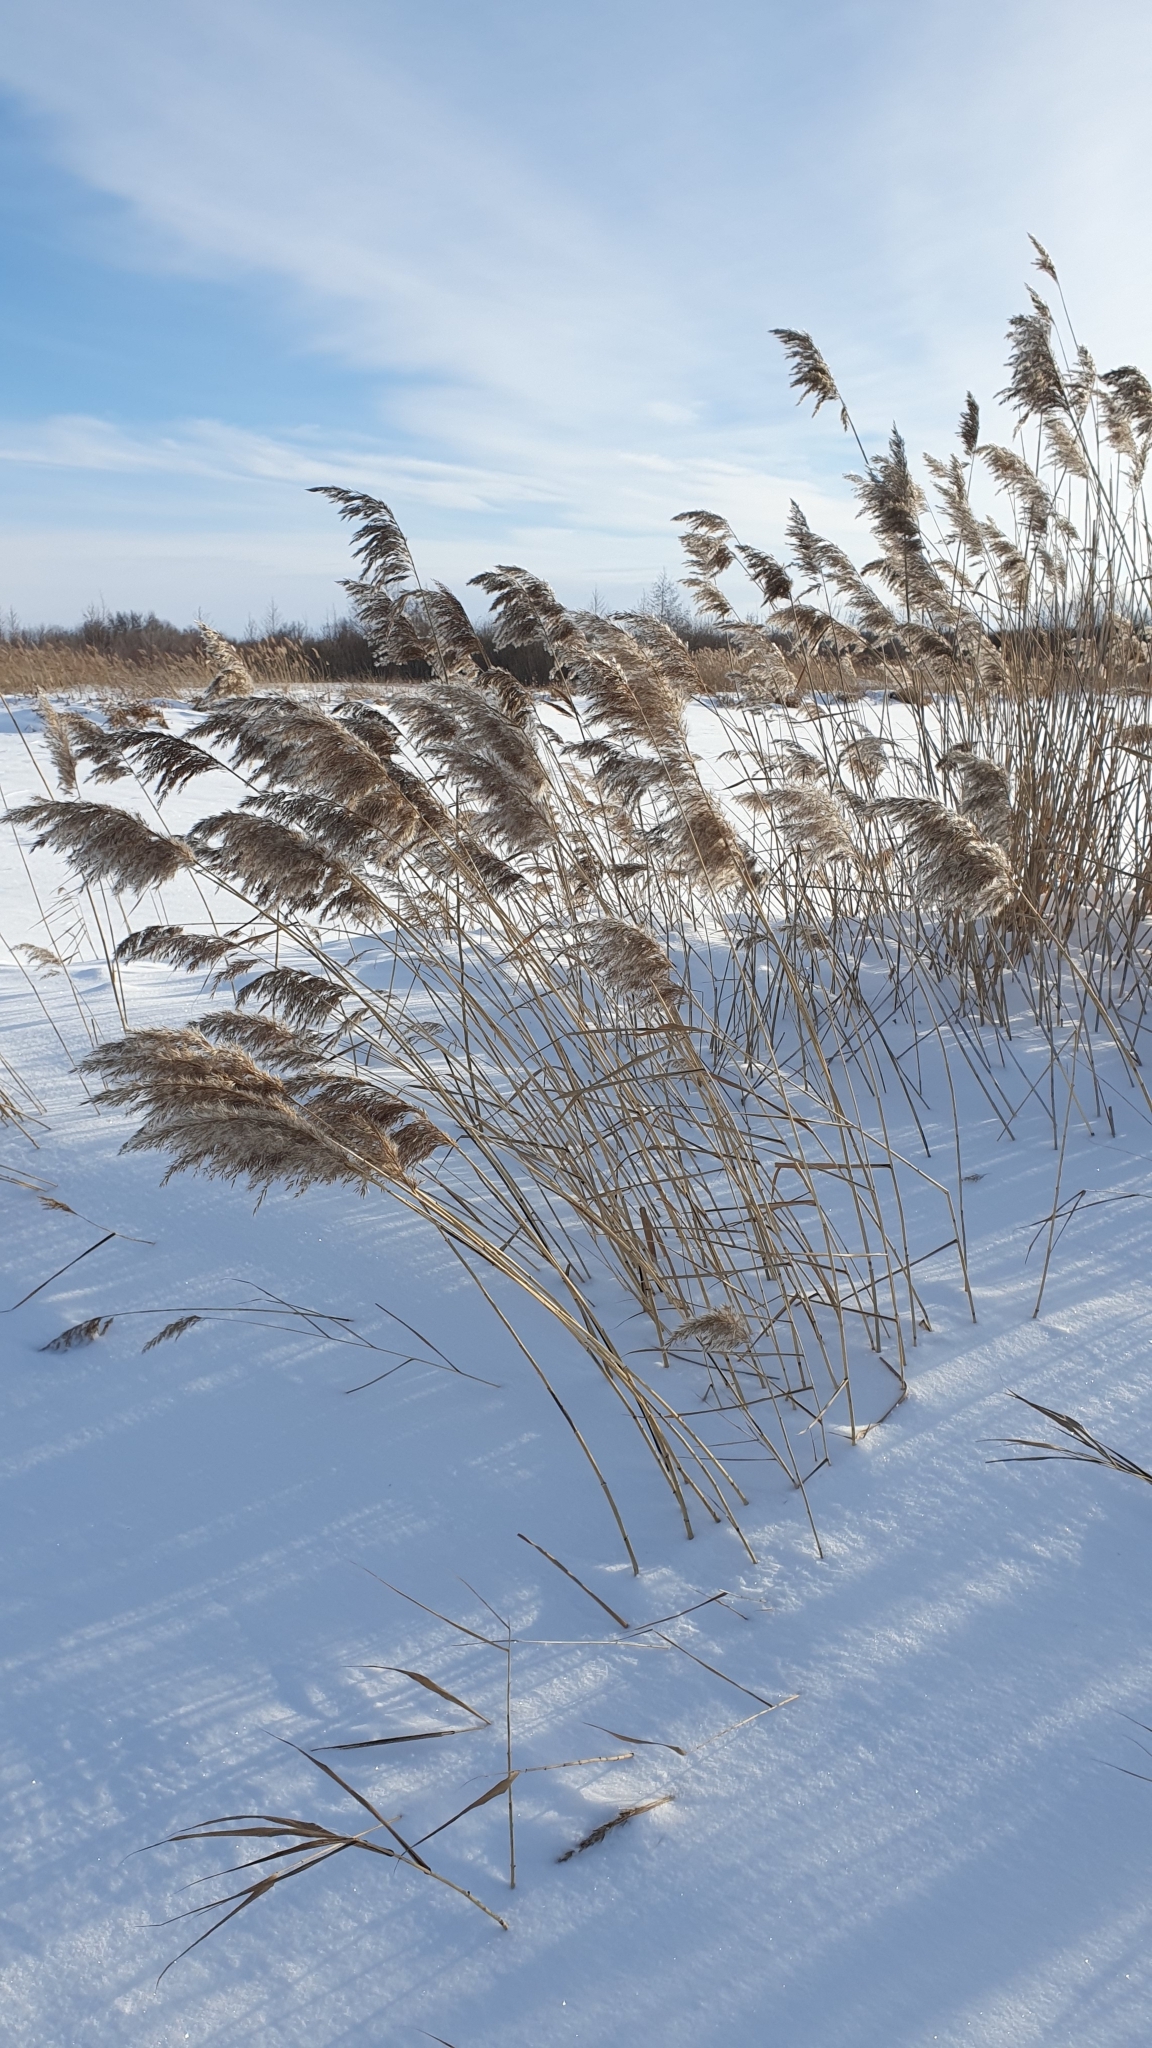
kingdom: Plantae
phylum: Tracheophyta
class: Liliopsida
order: Poales
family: Poaceae
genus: Phragmites
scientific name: Phragmites australis
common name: Common reed
